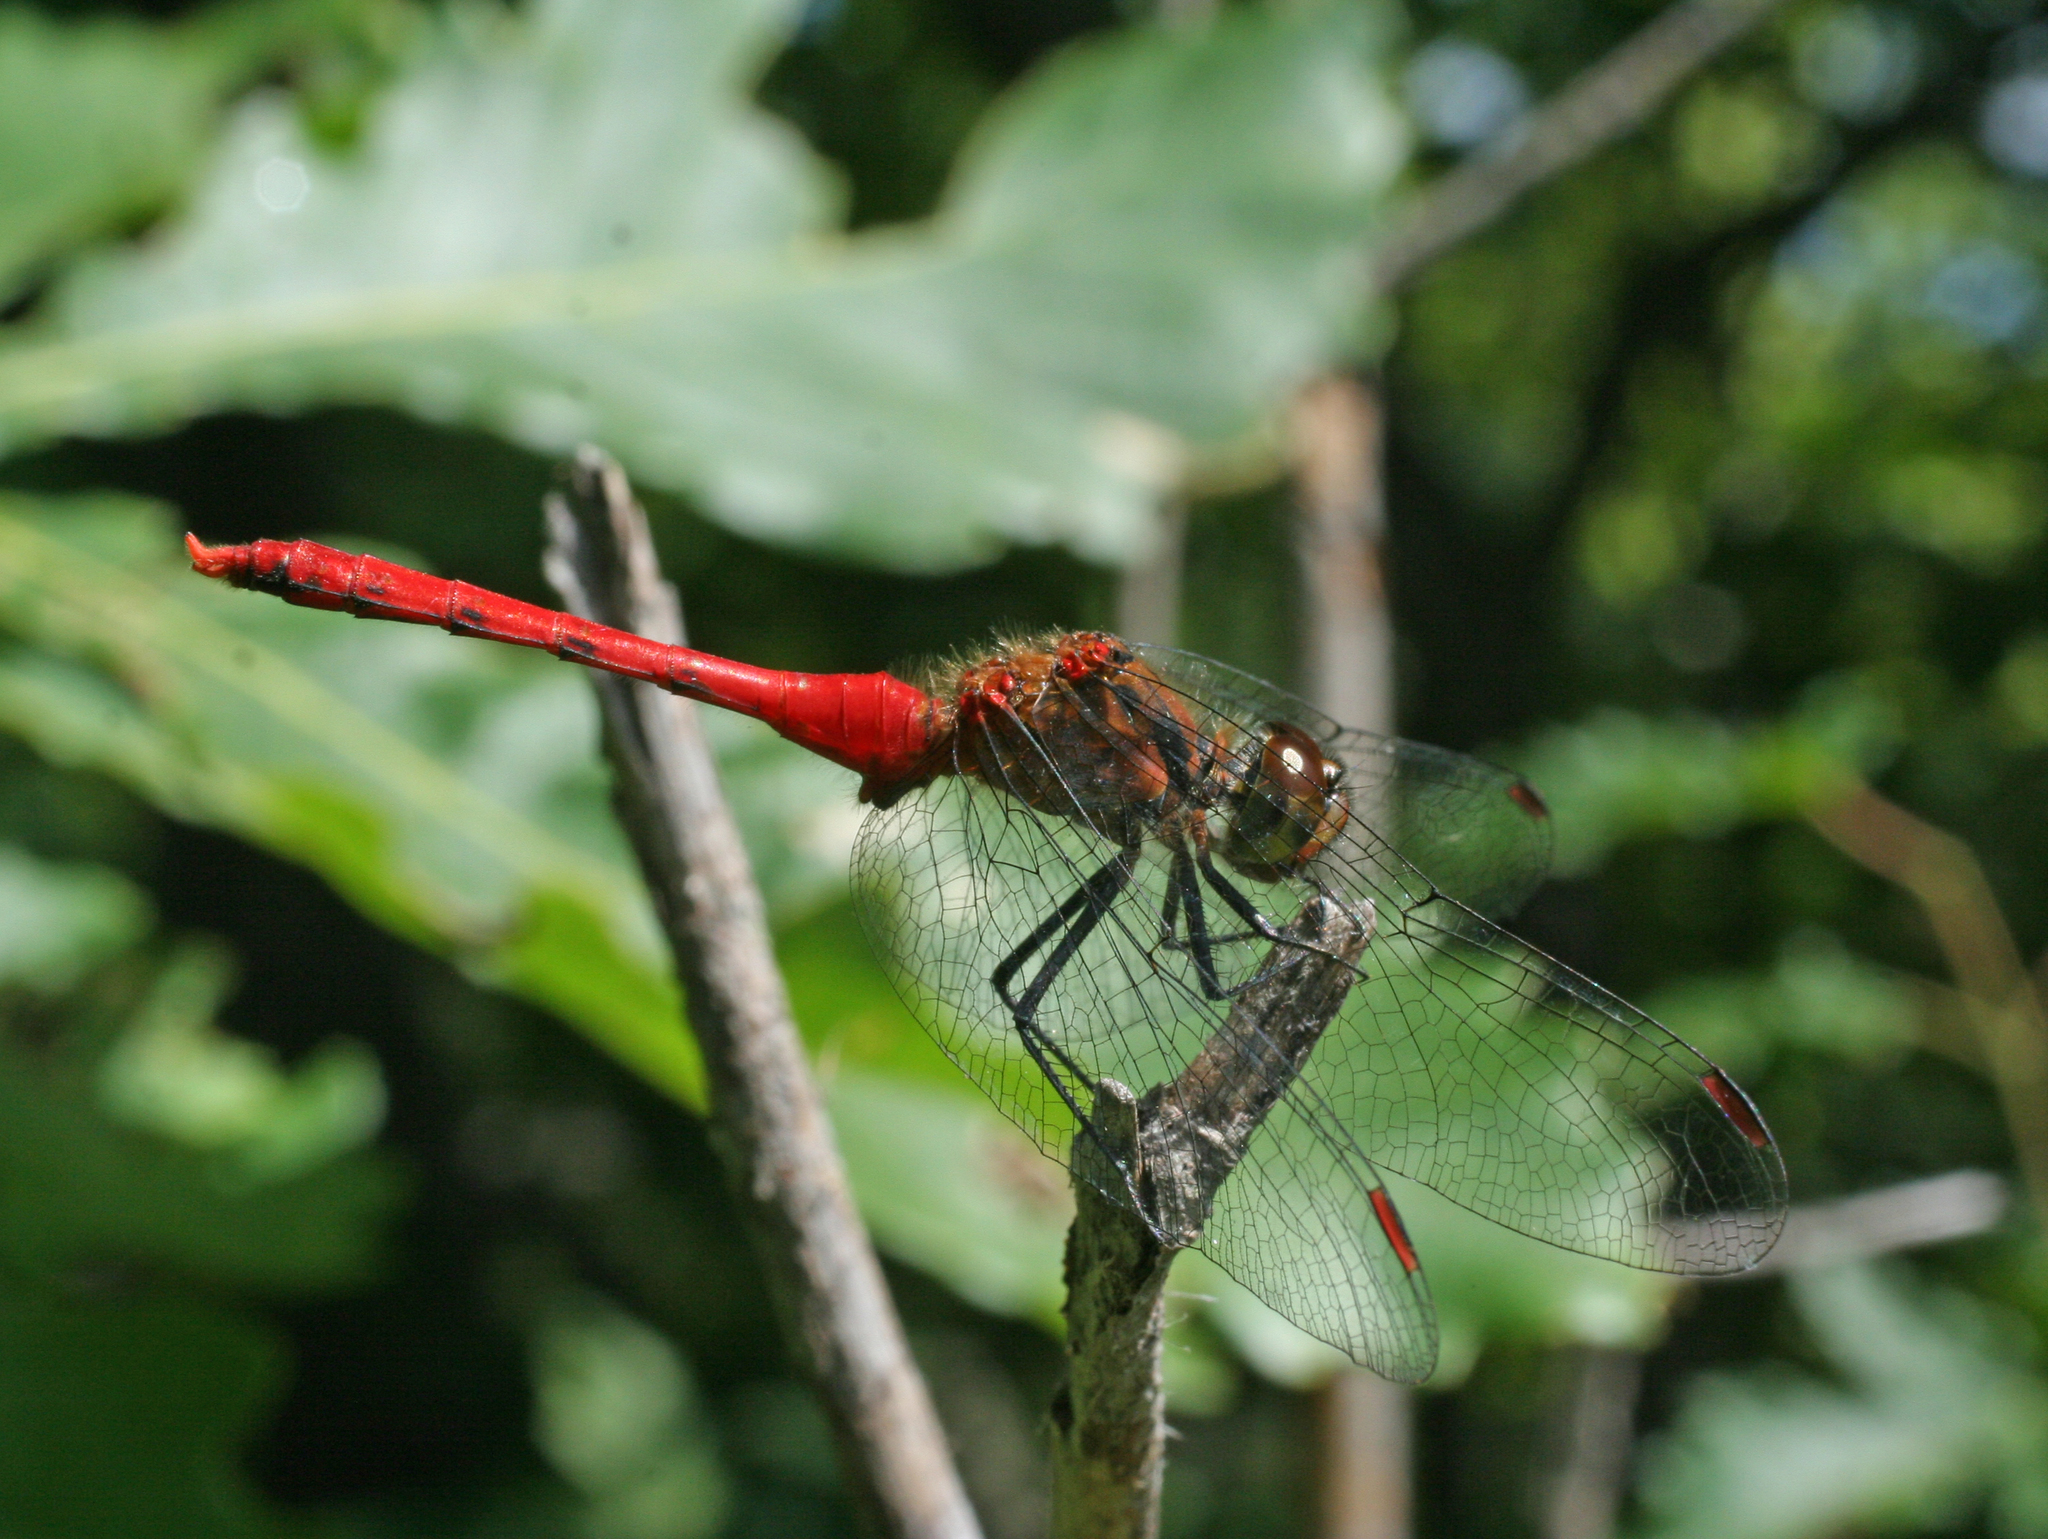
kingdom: Animalia
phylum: Arthropoda
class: Insecta
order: Odonata
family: Libellulidae
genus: Sympetrum
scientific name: Sympetrum eroticum
